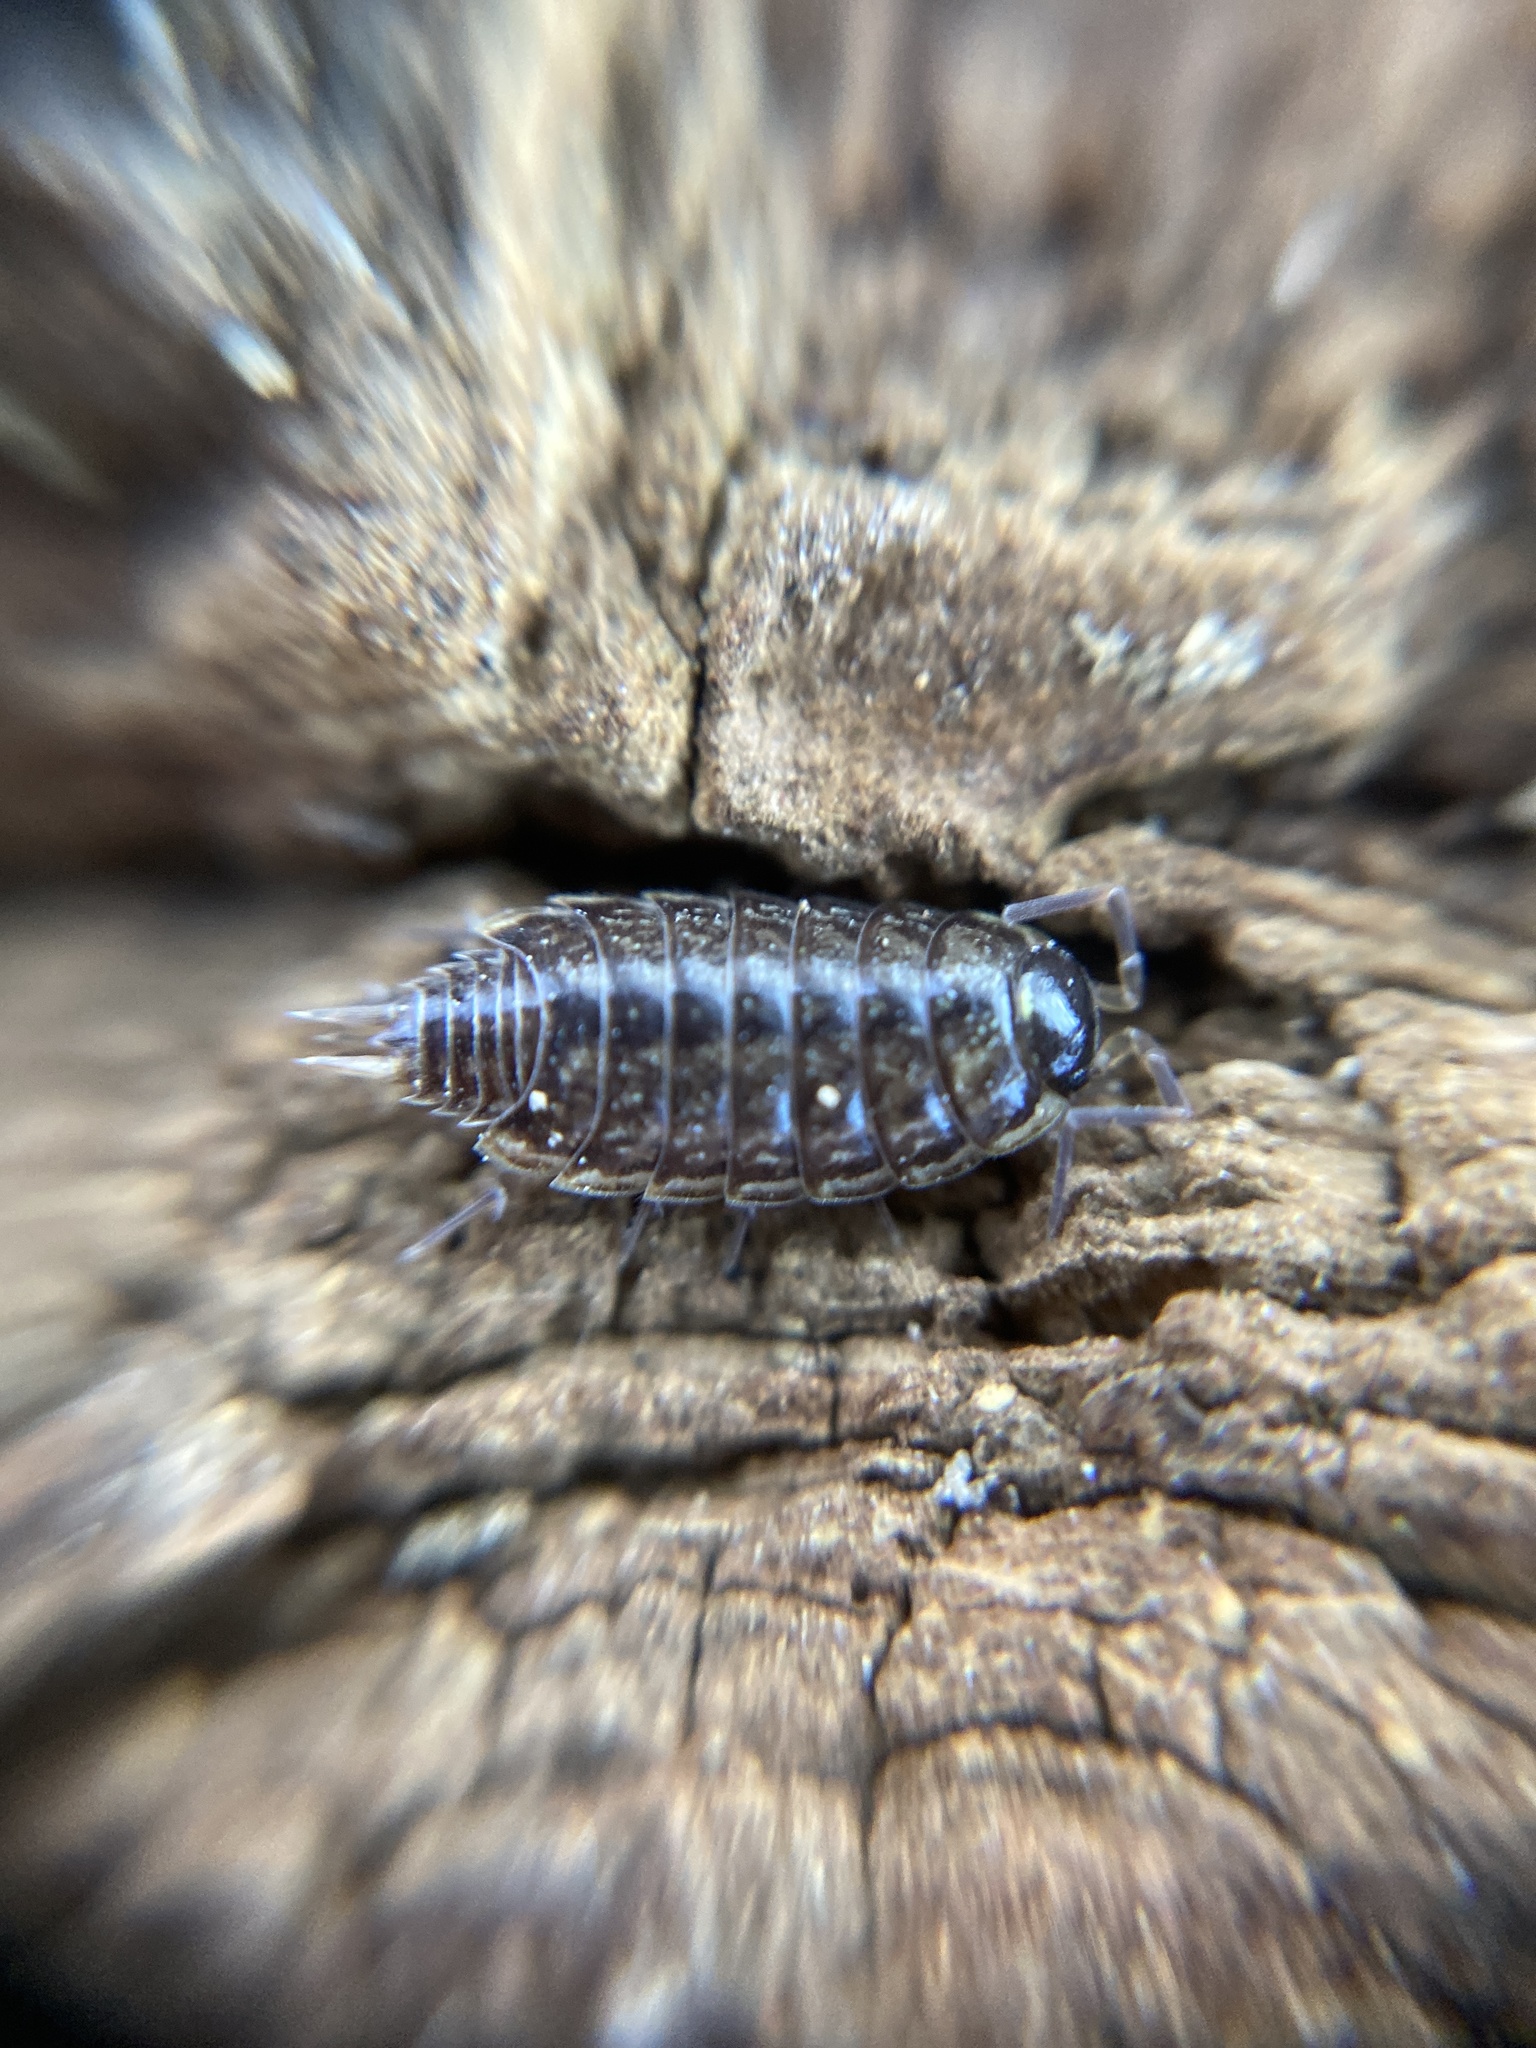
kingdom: Animalia
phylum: Arthropoda
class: Malacostraca
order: Isopoda
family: Philosciidae
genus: Philoscia
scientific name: Philoscia muscorum
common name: Common striped woodlouse
